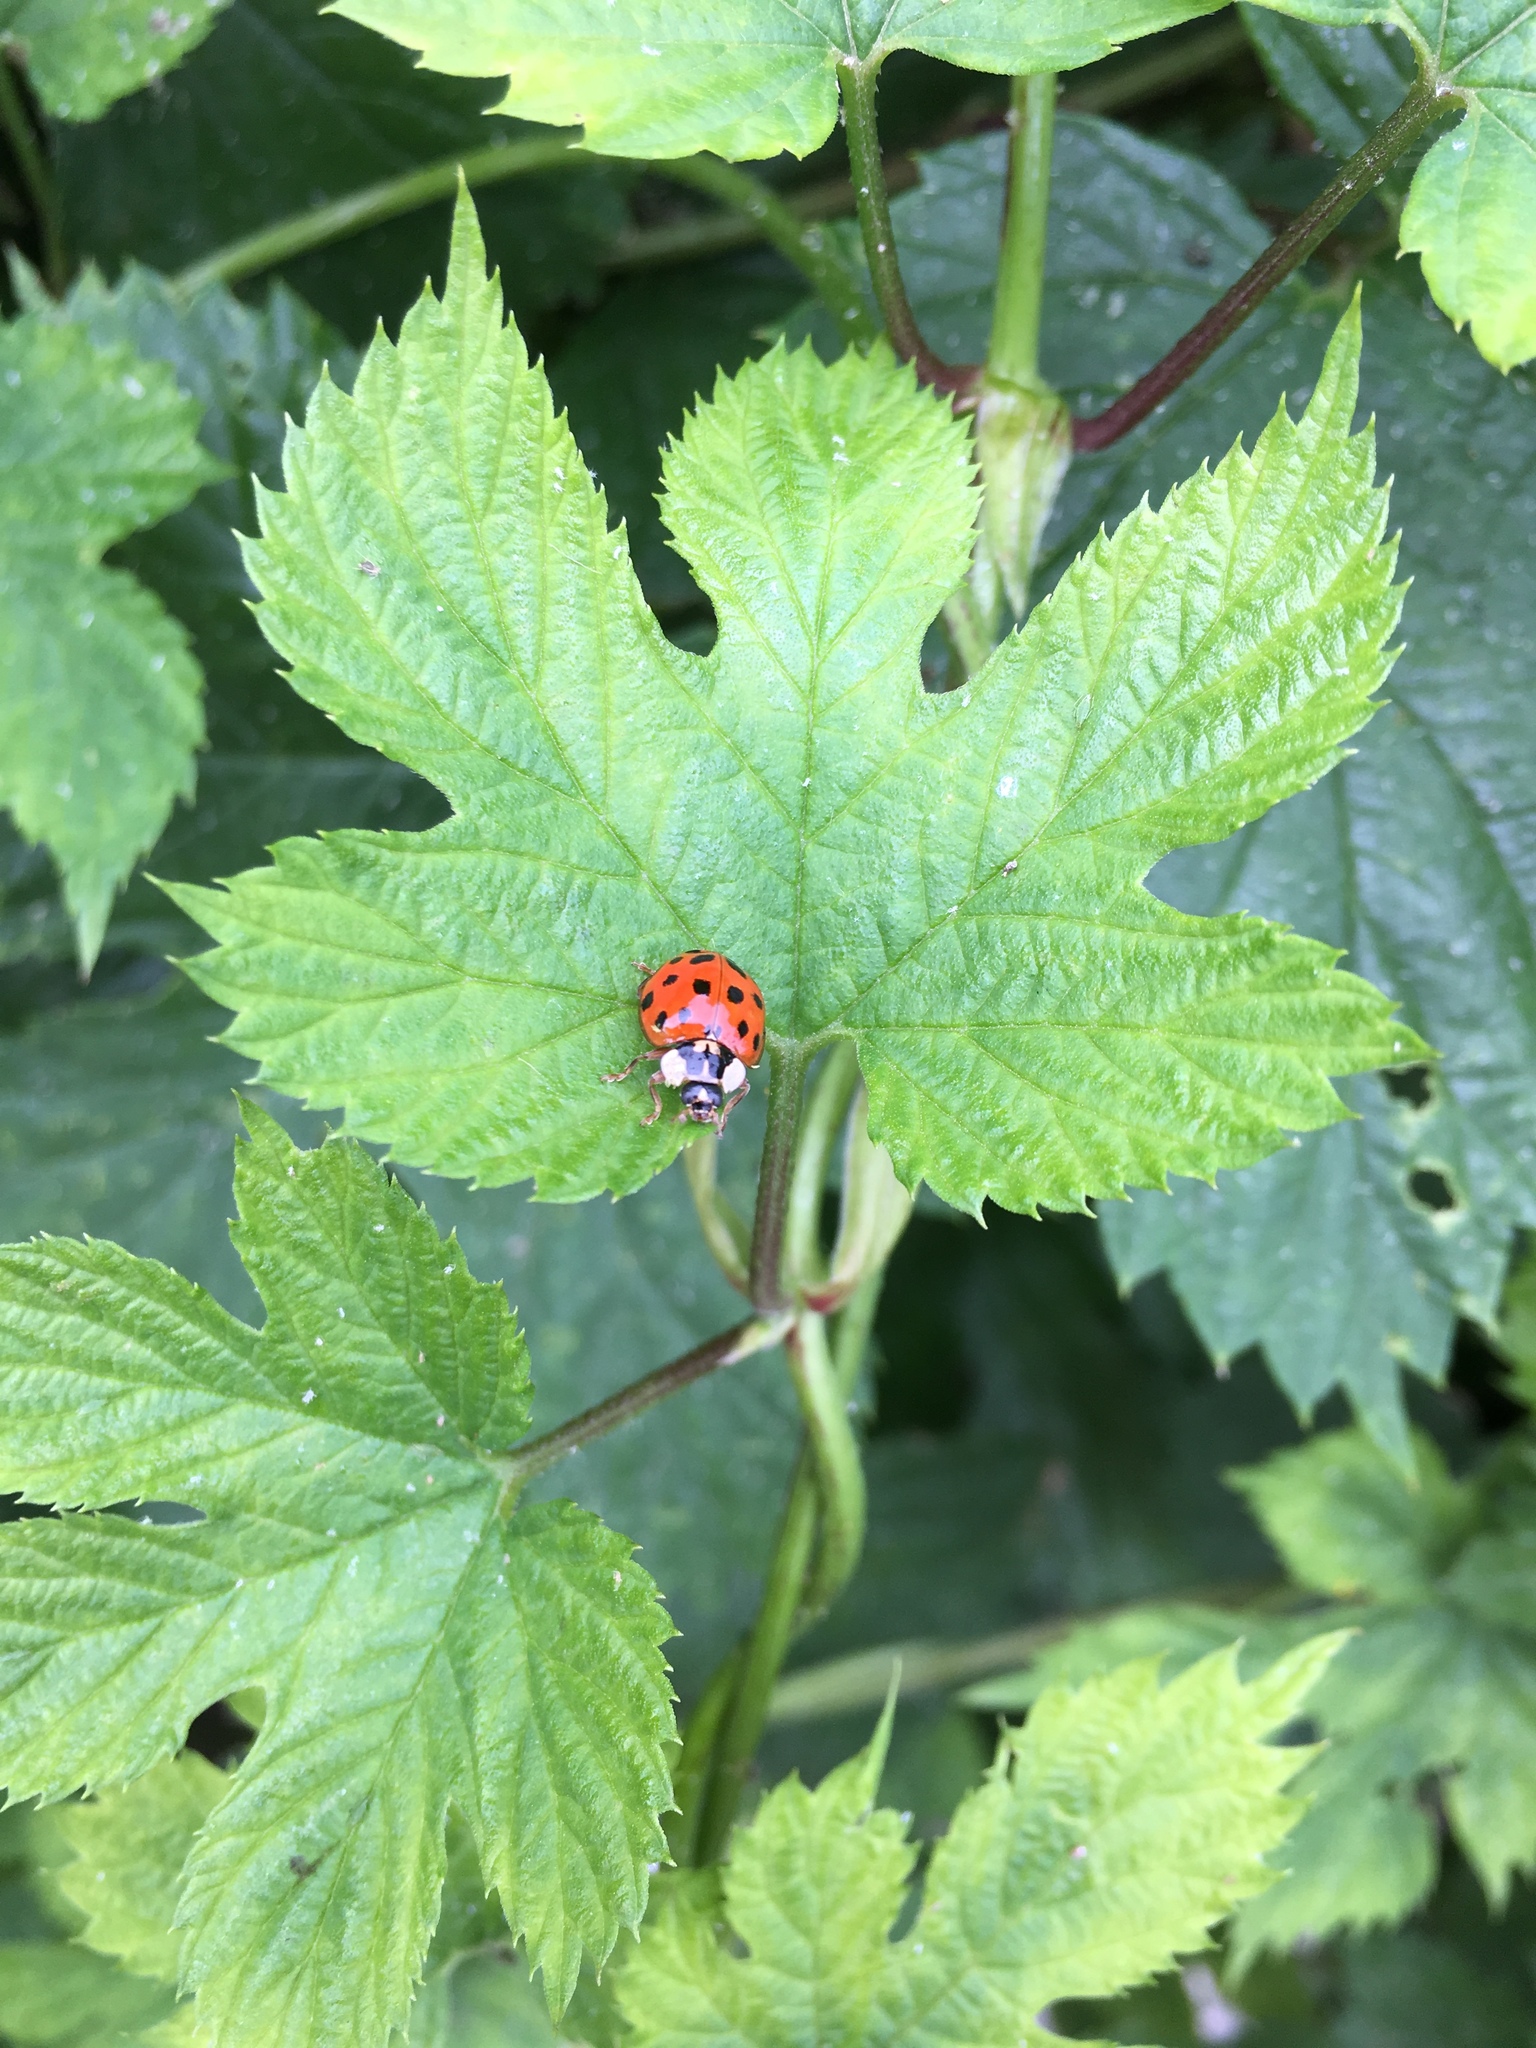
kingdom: Animalia
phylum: Arthropoda
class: Insecta
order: Coleoptera
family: Coccinellidae
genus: Harmonia
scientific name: Harmonia axyridis
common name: Harlequin ladybird
